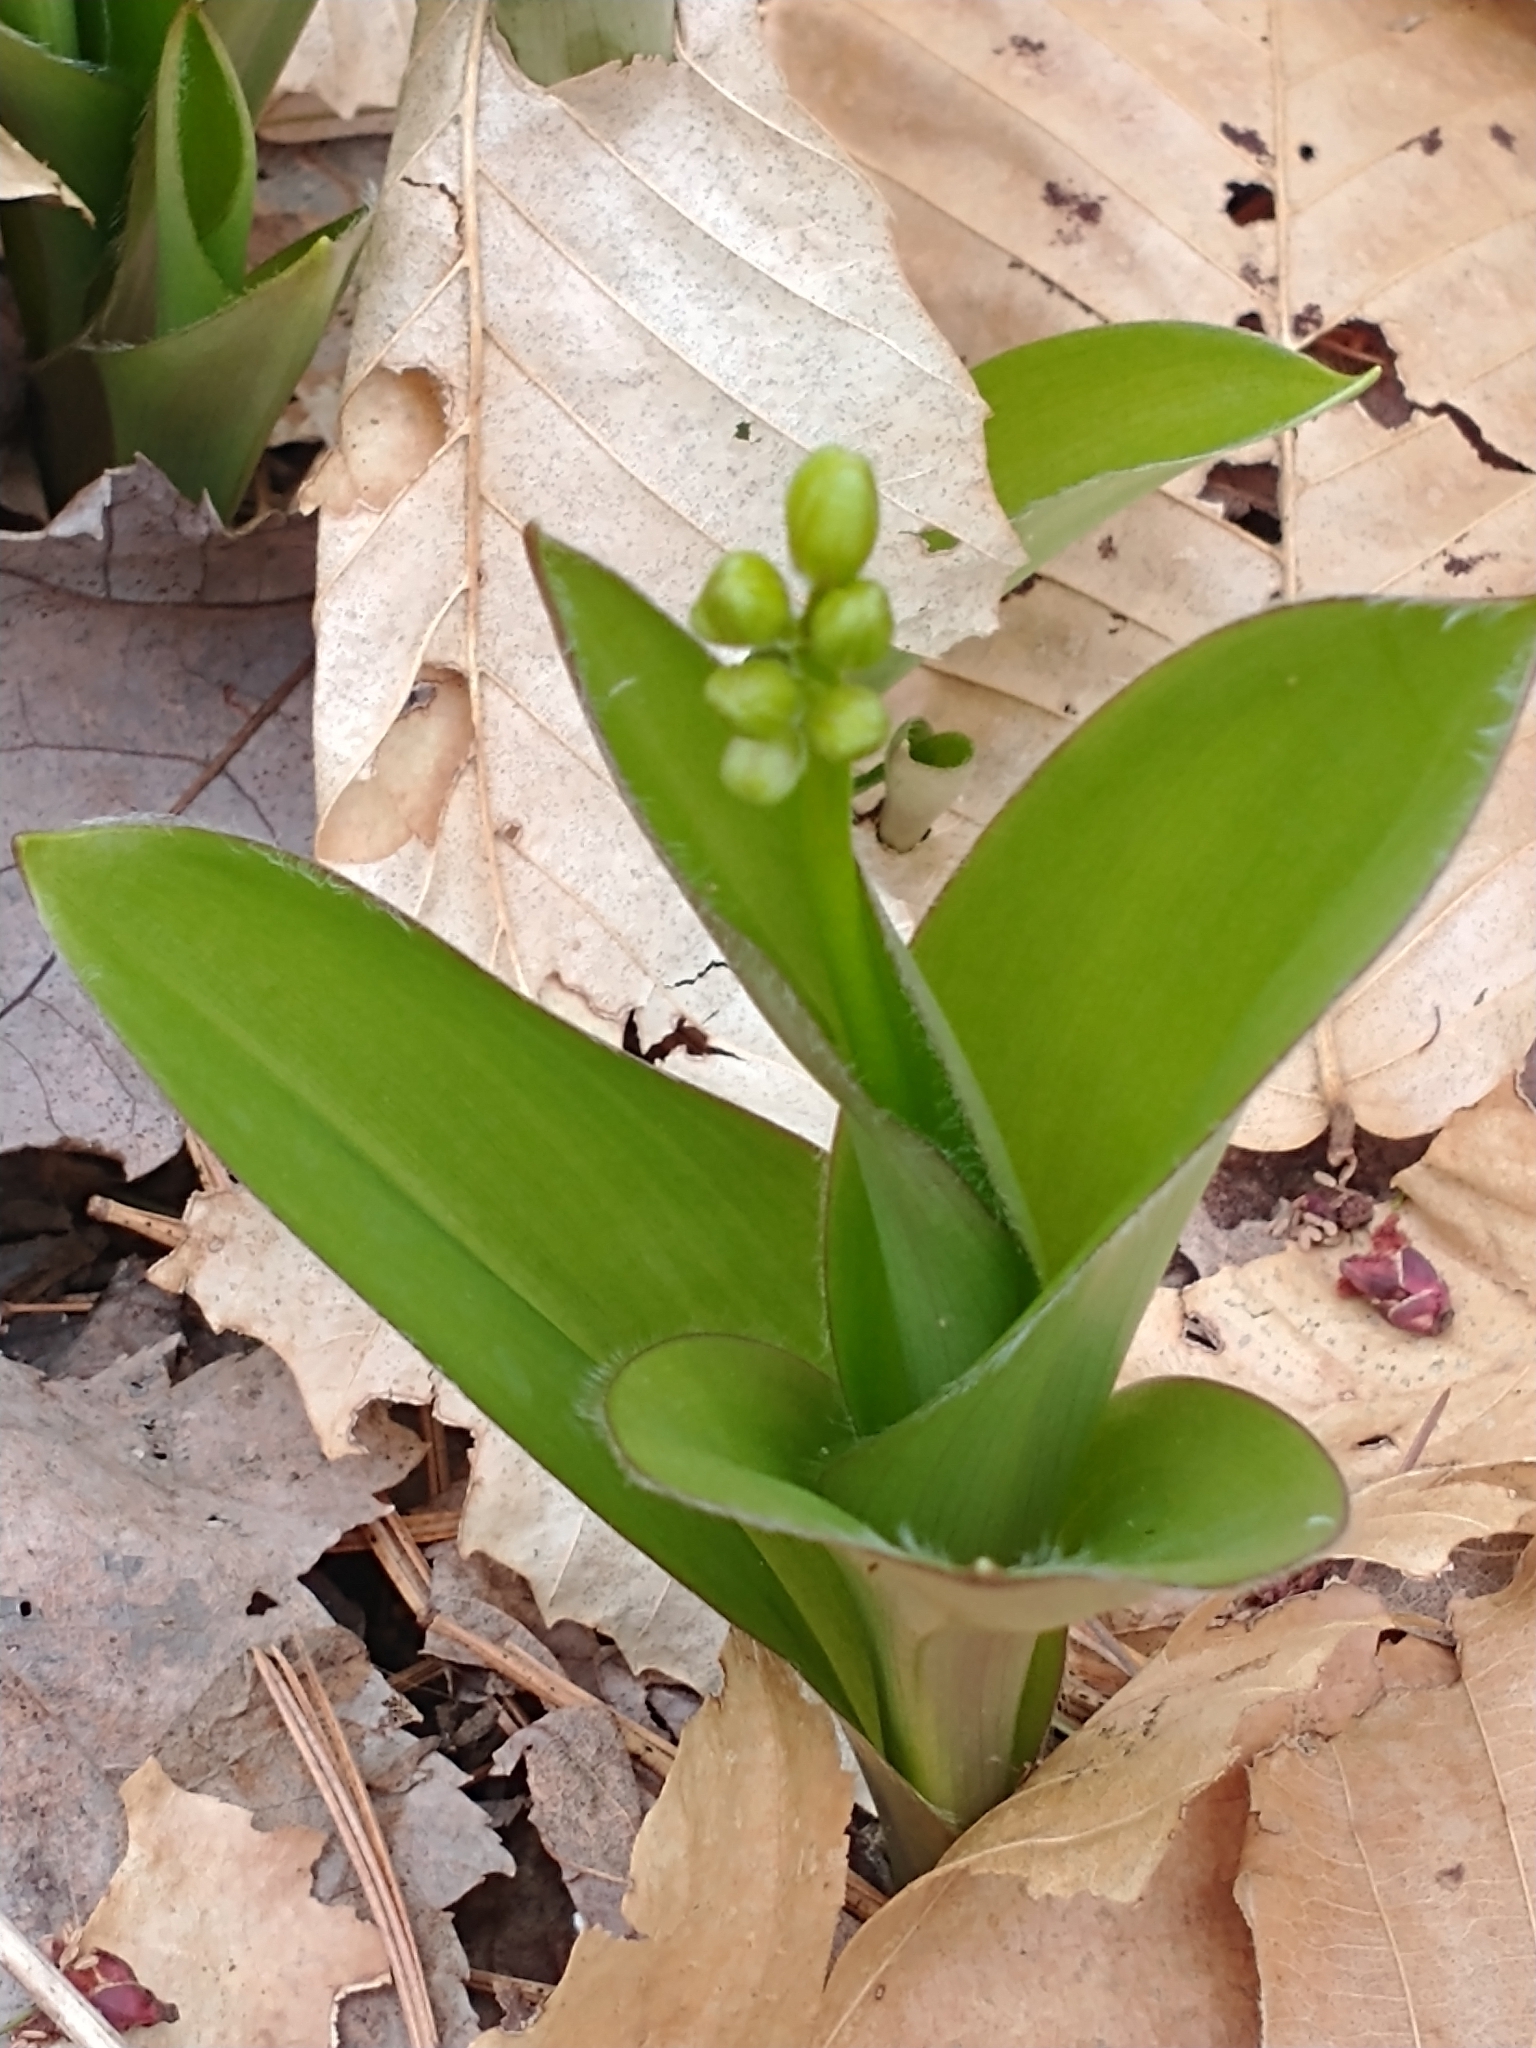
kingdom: Plantae
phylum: Tracheophyta
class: Liliopsida
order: Liliales
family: Liliaceae
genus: Clintonia
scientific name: Clintonia borealis
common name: Yellow clintonia
